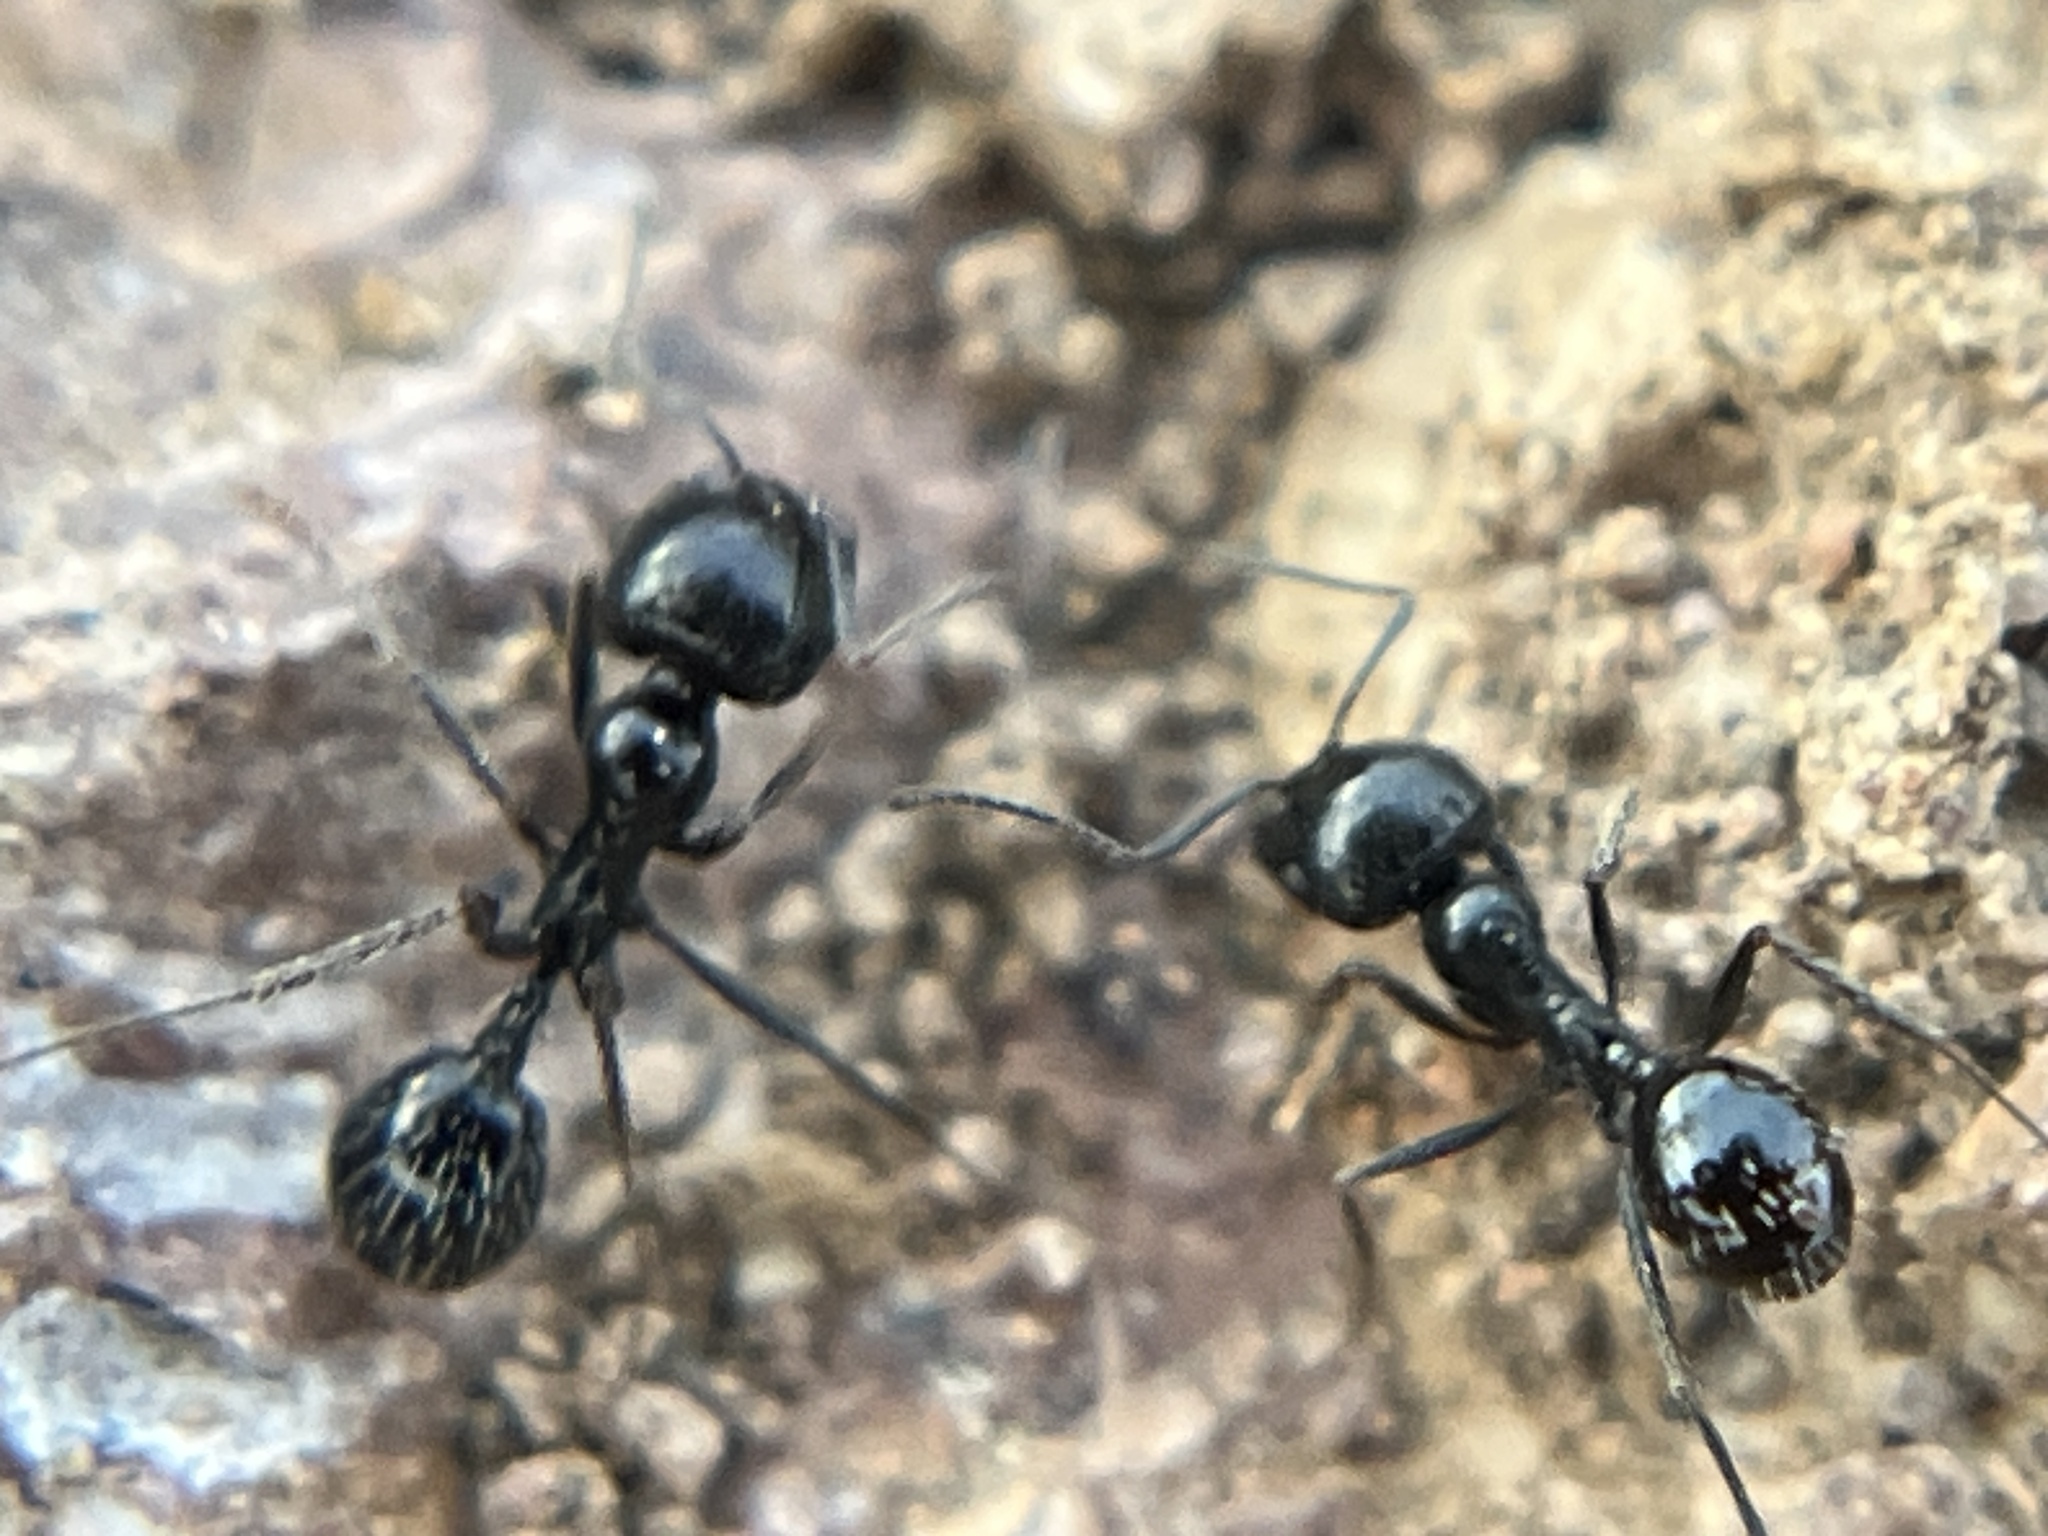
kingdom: Animalia
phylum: Arthropoda
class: Insecta
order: Hymenoptera
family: Formicidae
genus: Messor
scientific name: Messor pergandei
